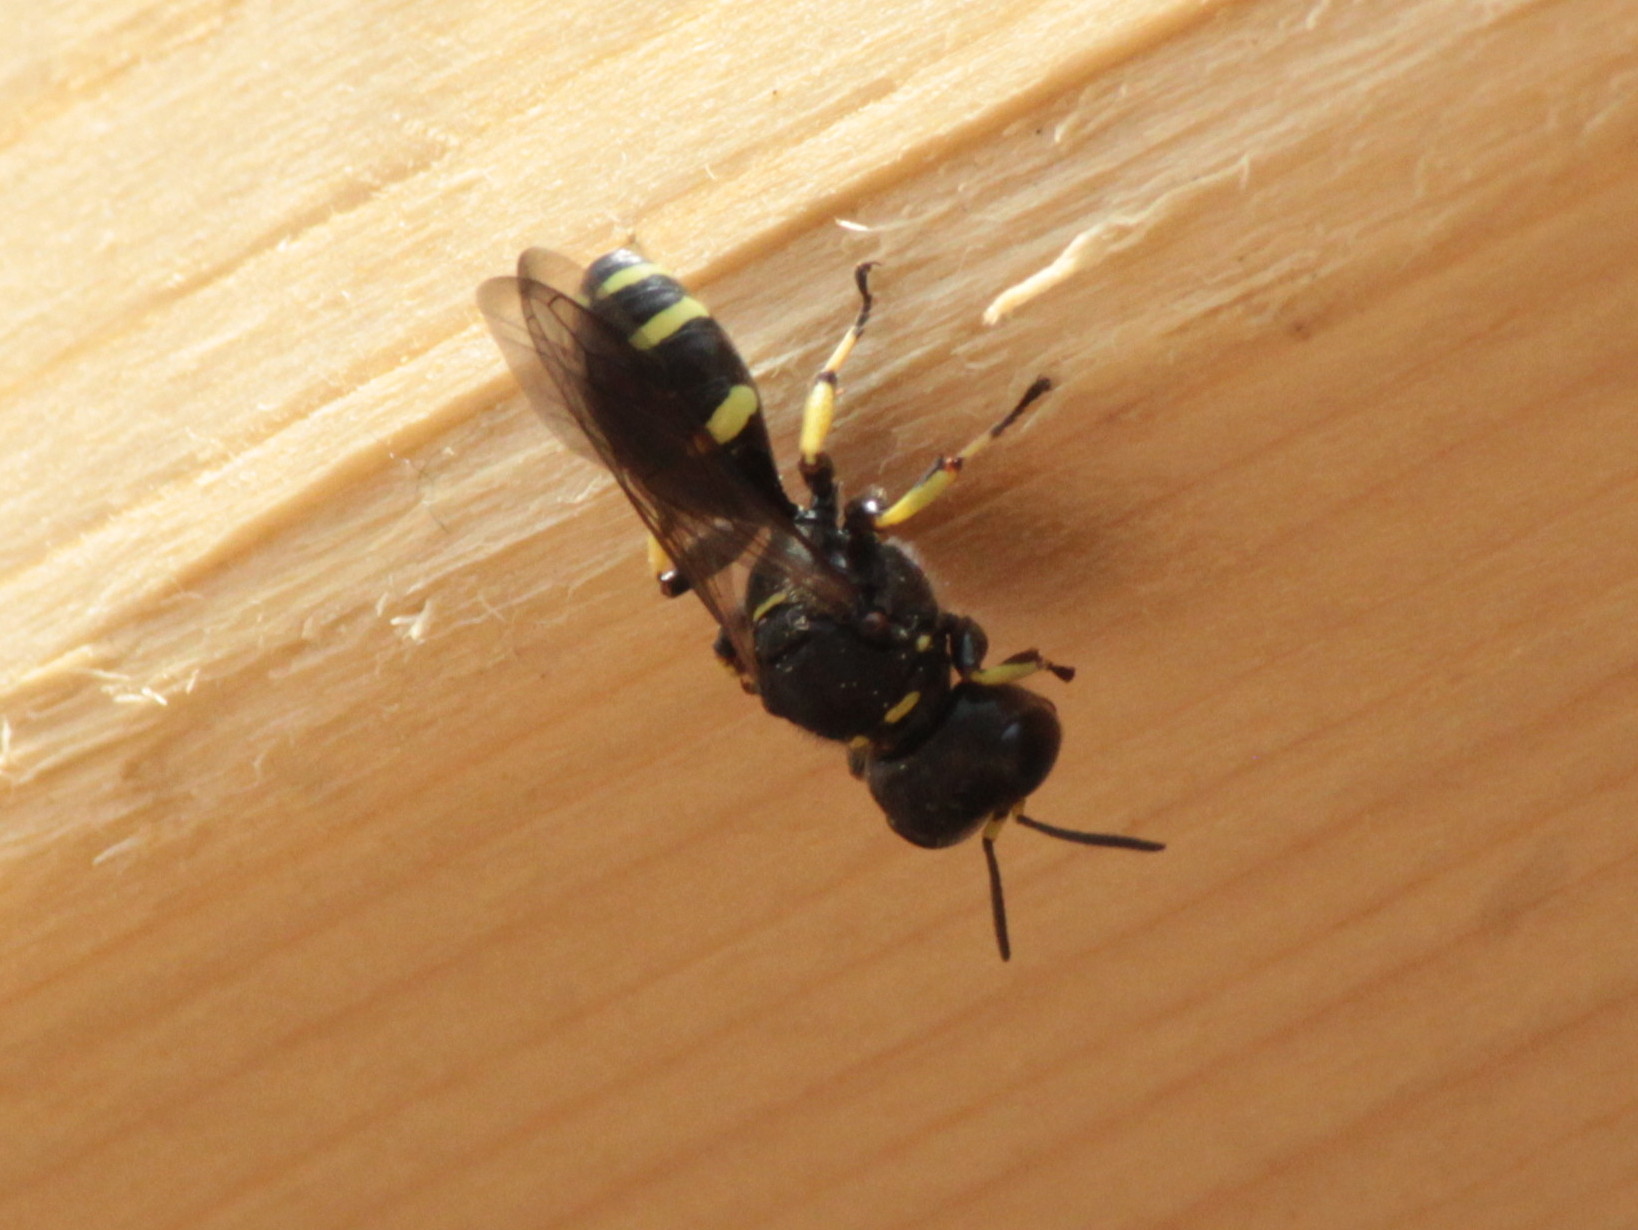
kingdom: Animalia
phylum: Arthropoda
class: Insecta
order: Hymenoptera
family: Crabronidae
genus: Ectemnius
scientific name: Ectemnius continuus
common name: Common ectemnius
